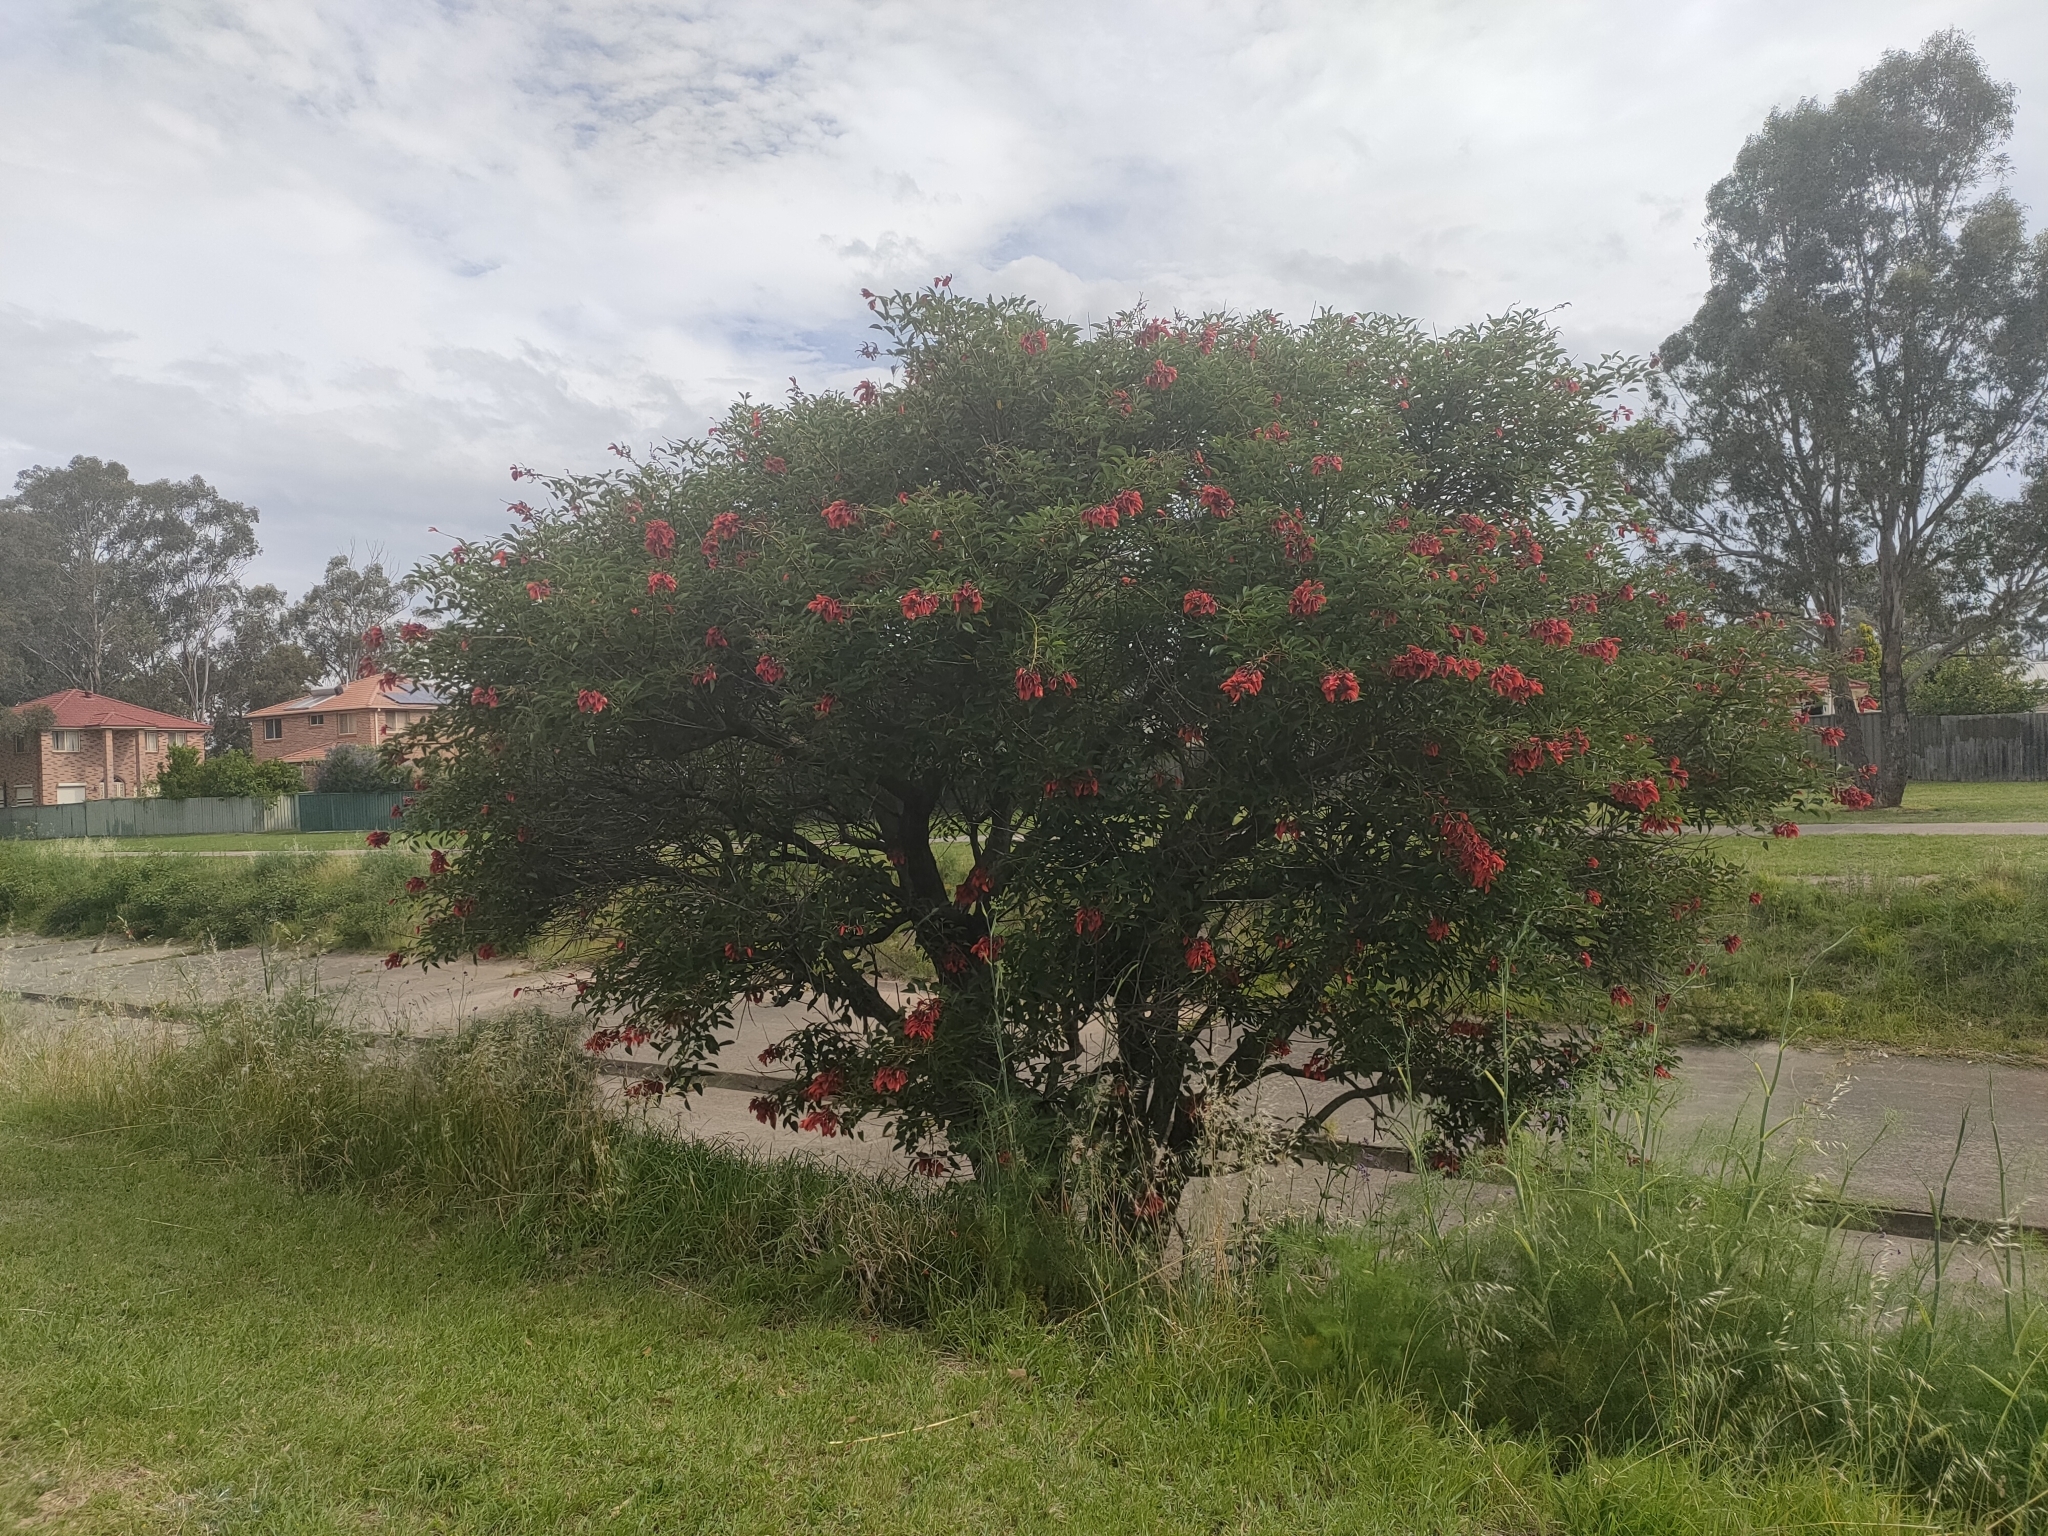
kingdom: Plantae
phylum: Tracheophyta
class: Magnoliopsida
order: Fabales
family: Fabaceae
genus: Erythrina
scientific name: Erythrina crista-galli
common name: Cockspur coral tree
